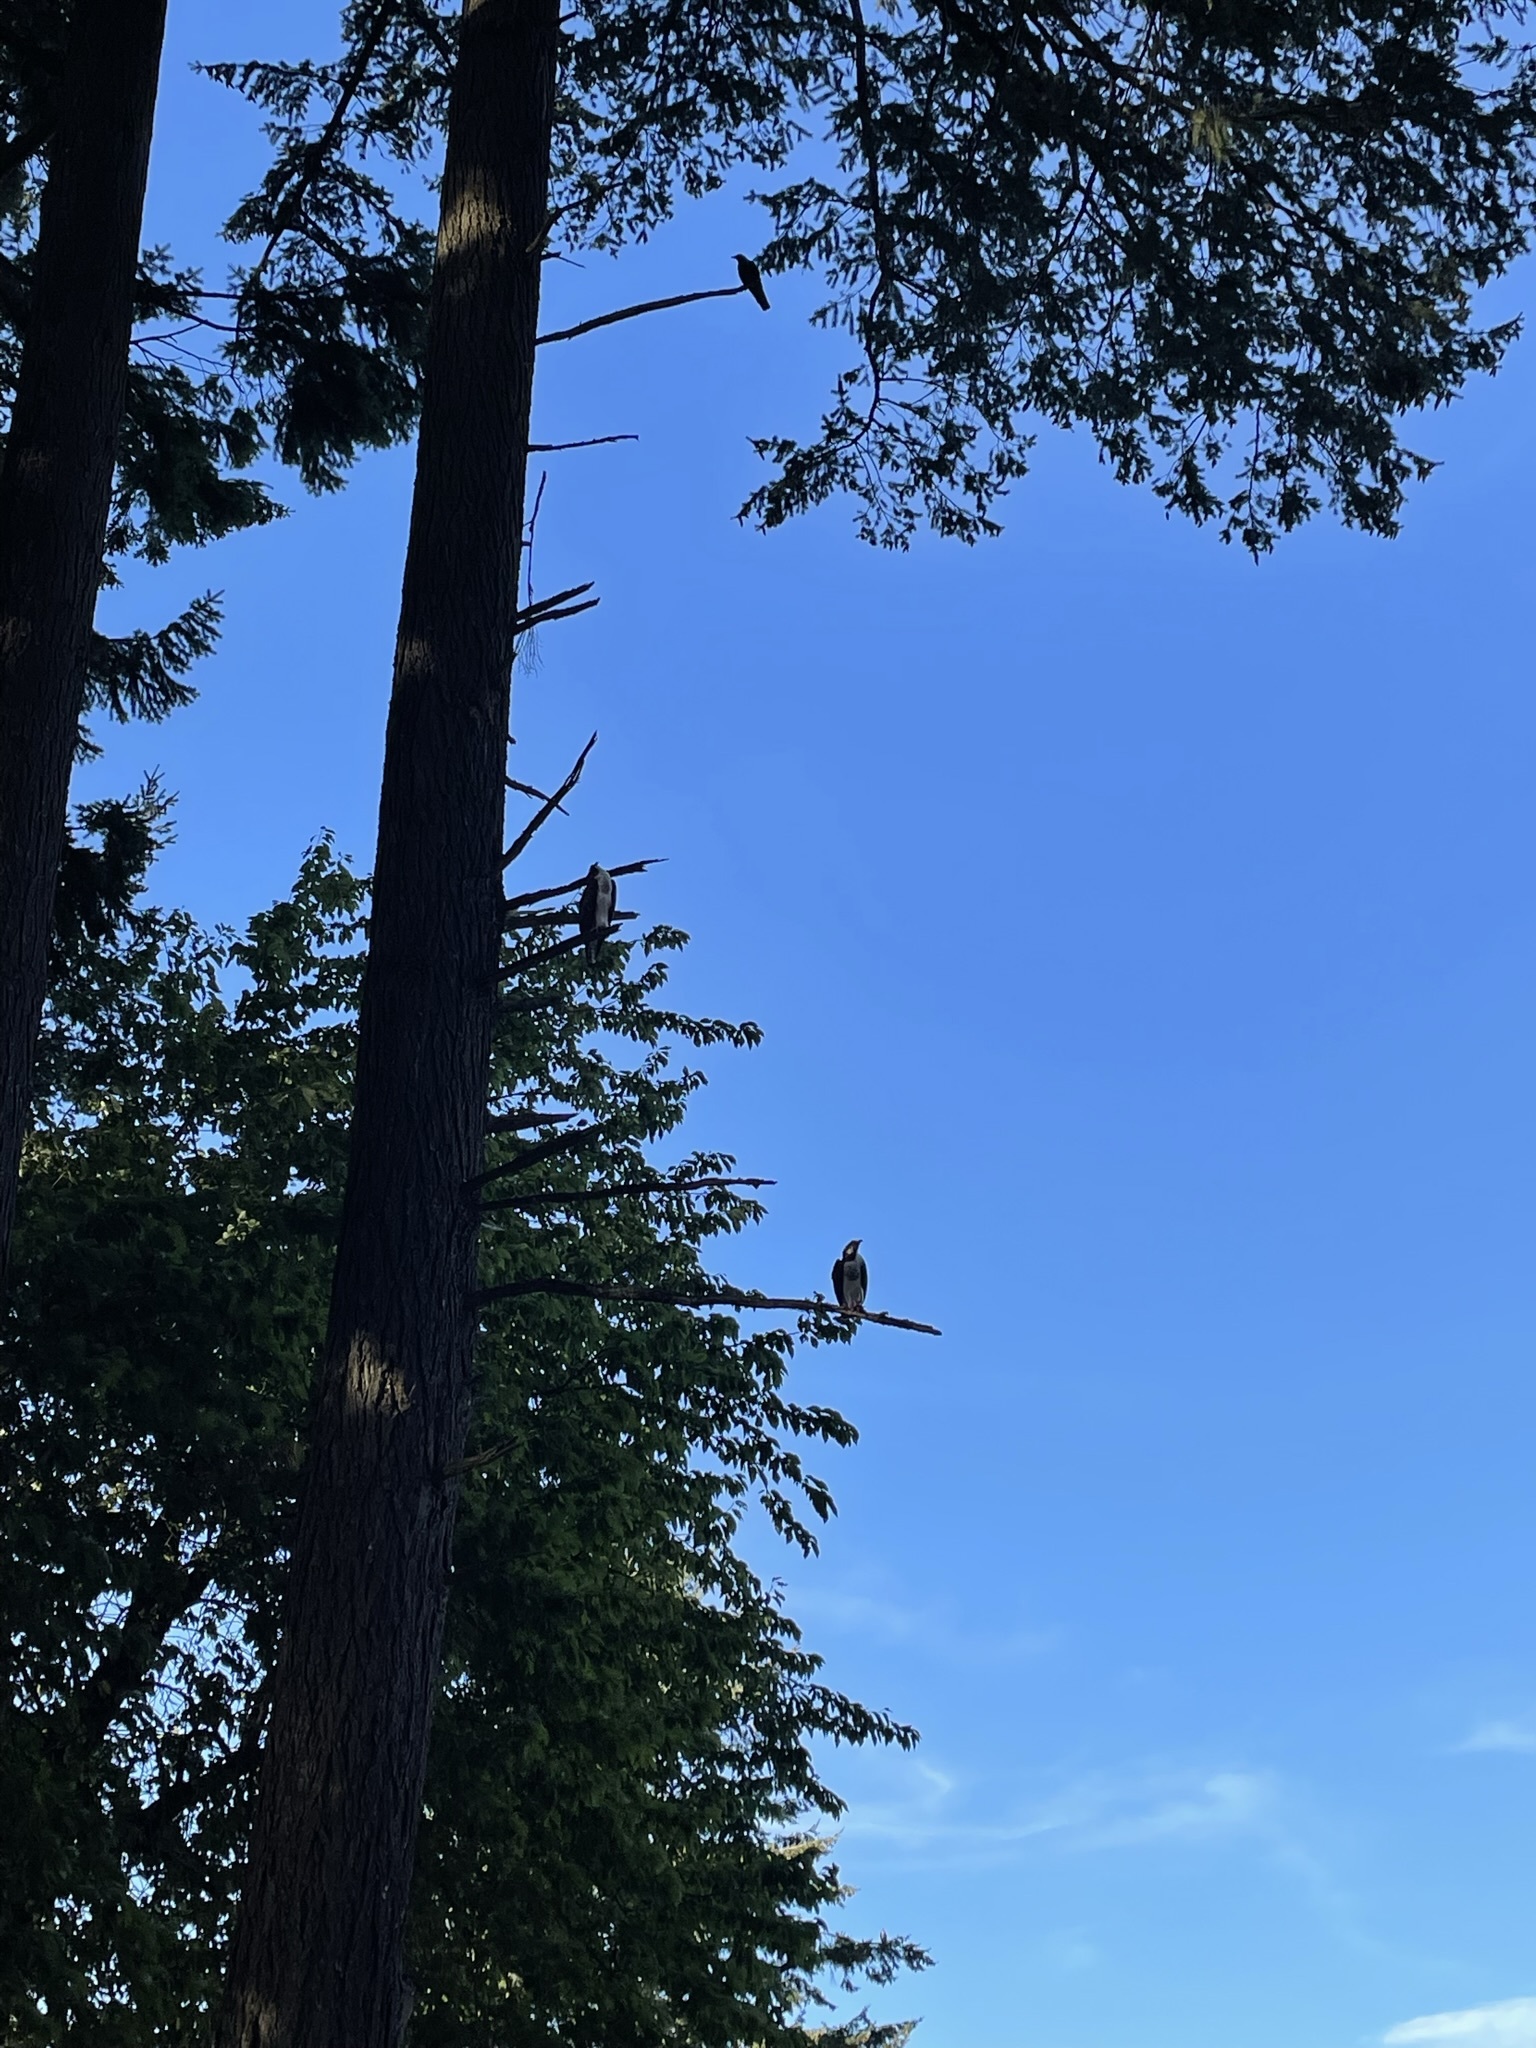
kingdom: Animalia
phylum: Chordata
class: Aves
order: Accipitriformes
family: Pandionidae
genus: Pandion
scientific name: Pandion haliaetus
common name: Osprey
